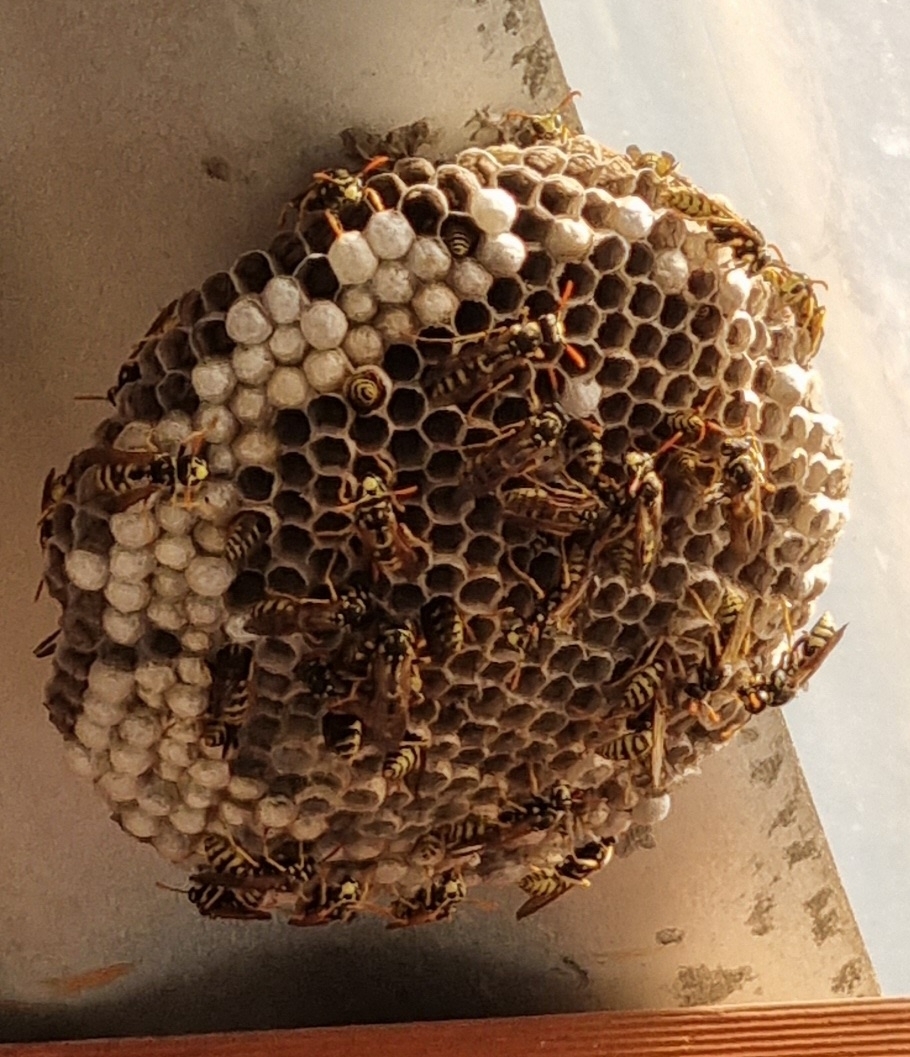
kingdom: Animalia
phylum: Arthropoda
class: Insecta
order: Hymenoptera
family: Eumenidae
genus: Polistes
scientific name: Polistes dominula
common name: Paper wasp
